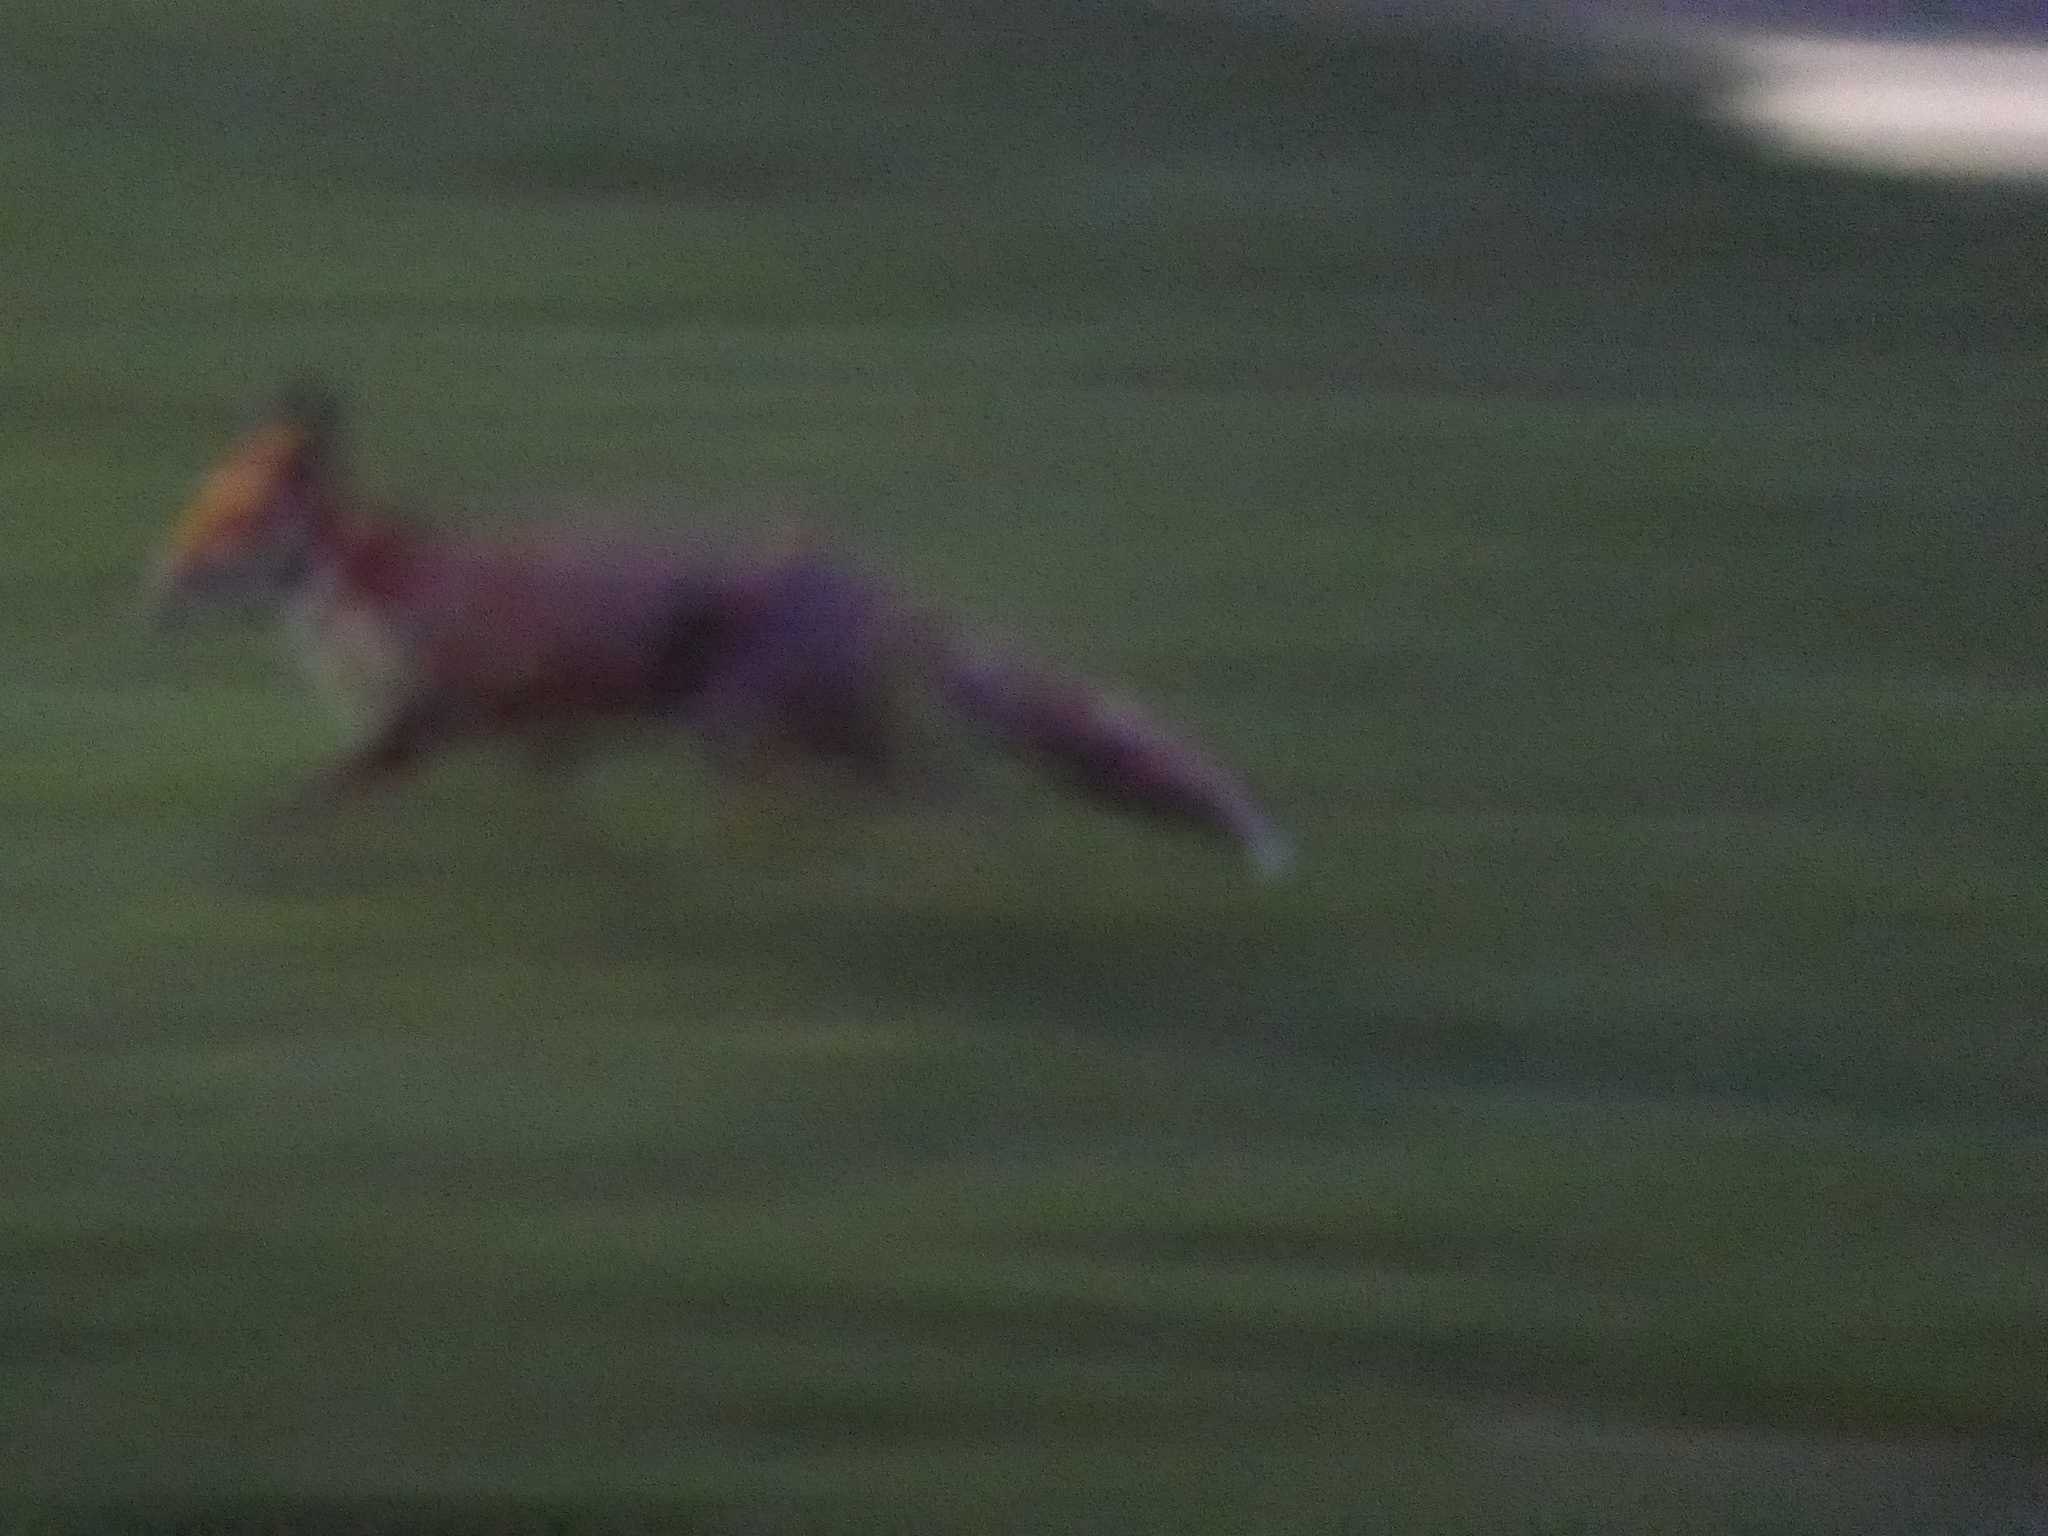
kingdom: Animalia
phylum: Chordata
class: Mammalia
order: Carnivora
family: Canidae
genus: Vulpes
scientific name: Vulpes vulpes
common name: Red fox
